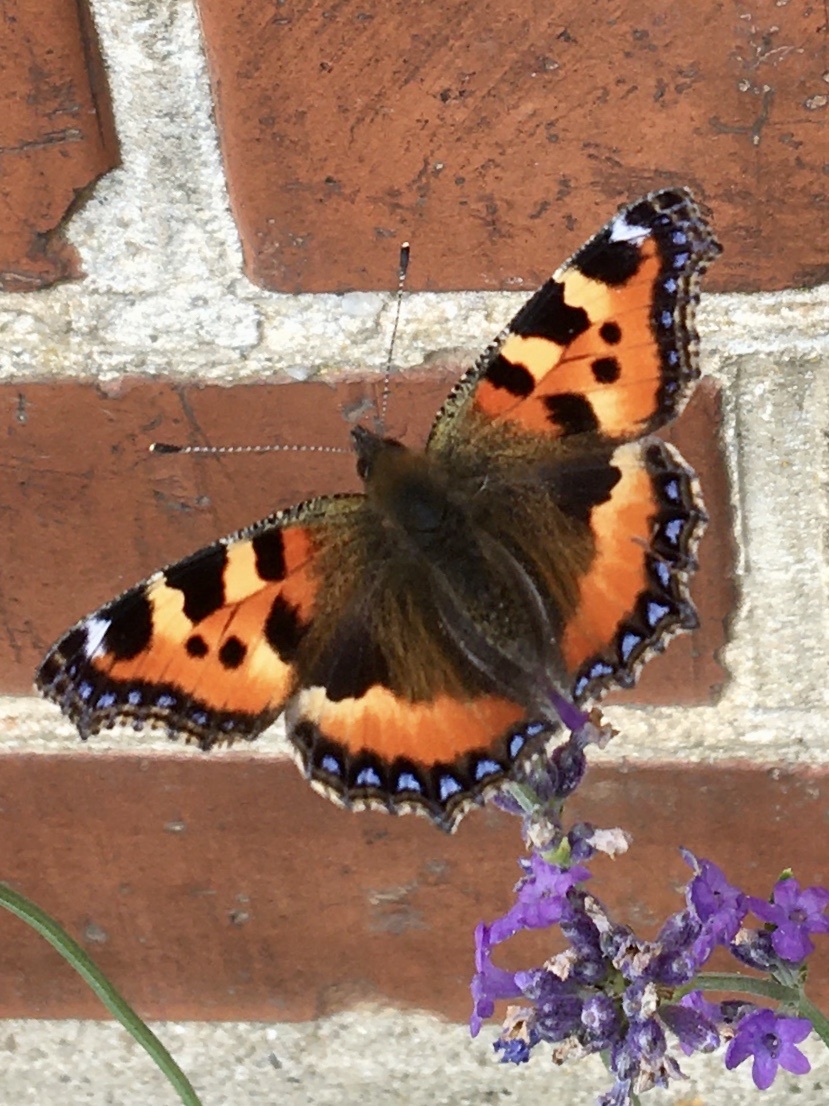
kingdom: Animalia
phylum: Arthropoda
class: Insecta
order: Lepidoptera
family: Nymphalidae
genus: Aglais
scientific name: Aglais urticae
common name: Small tortoiseshell
